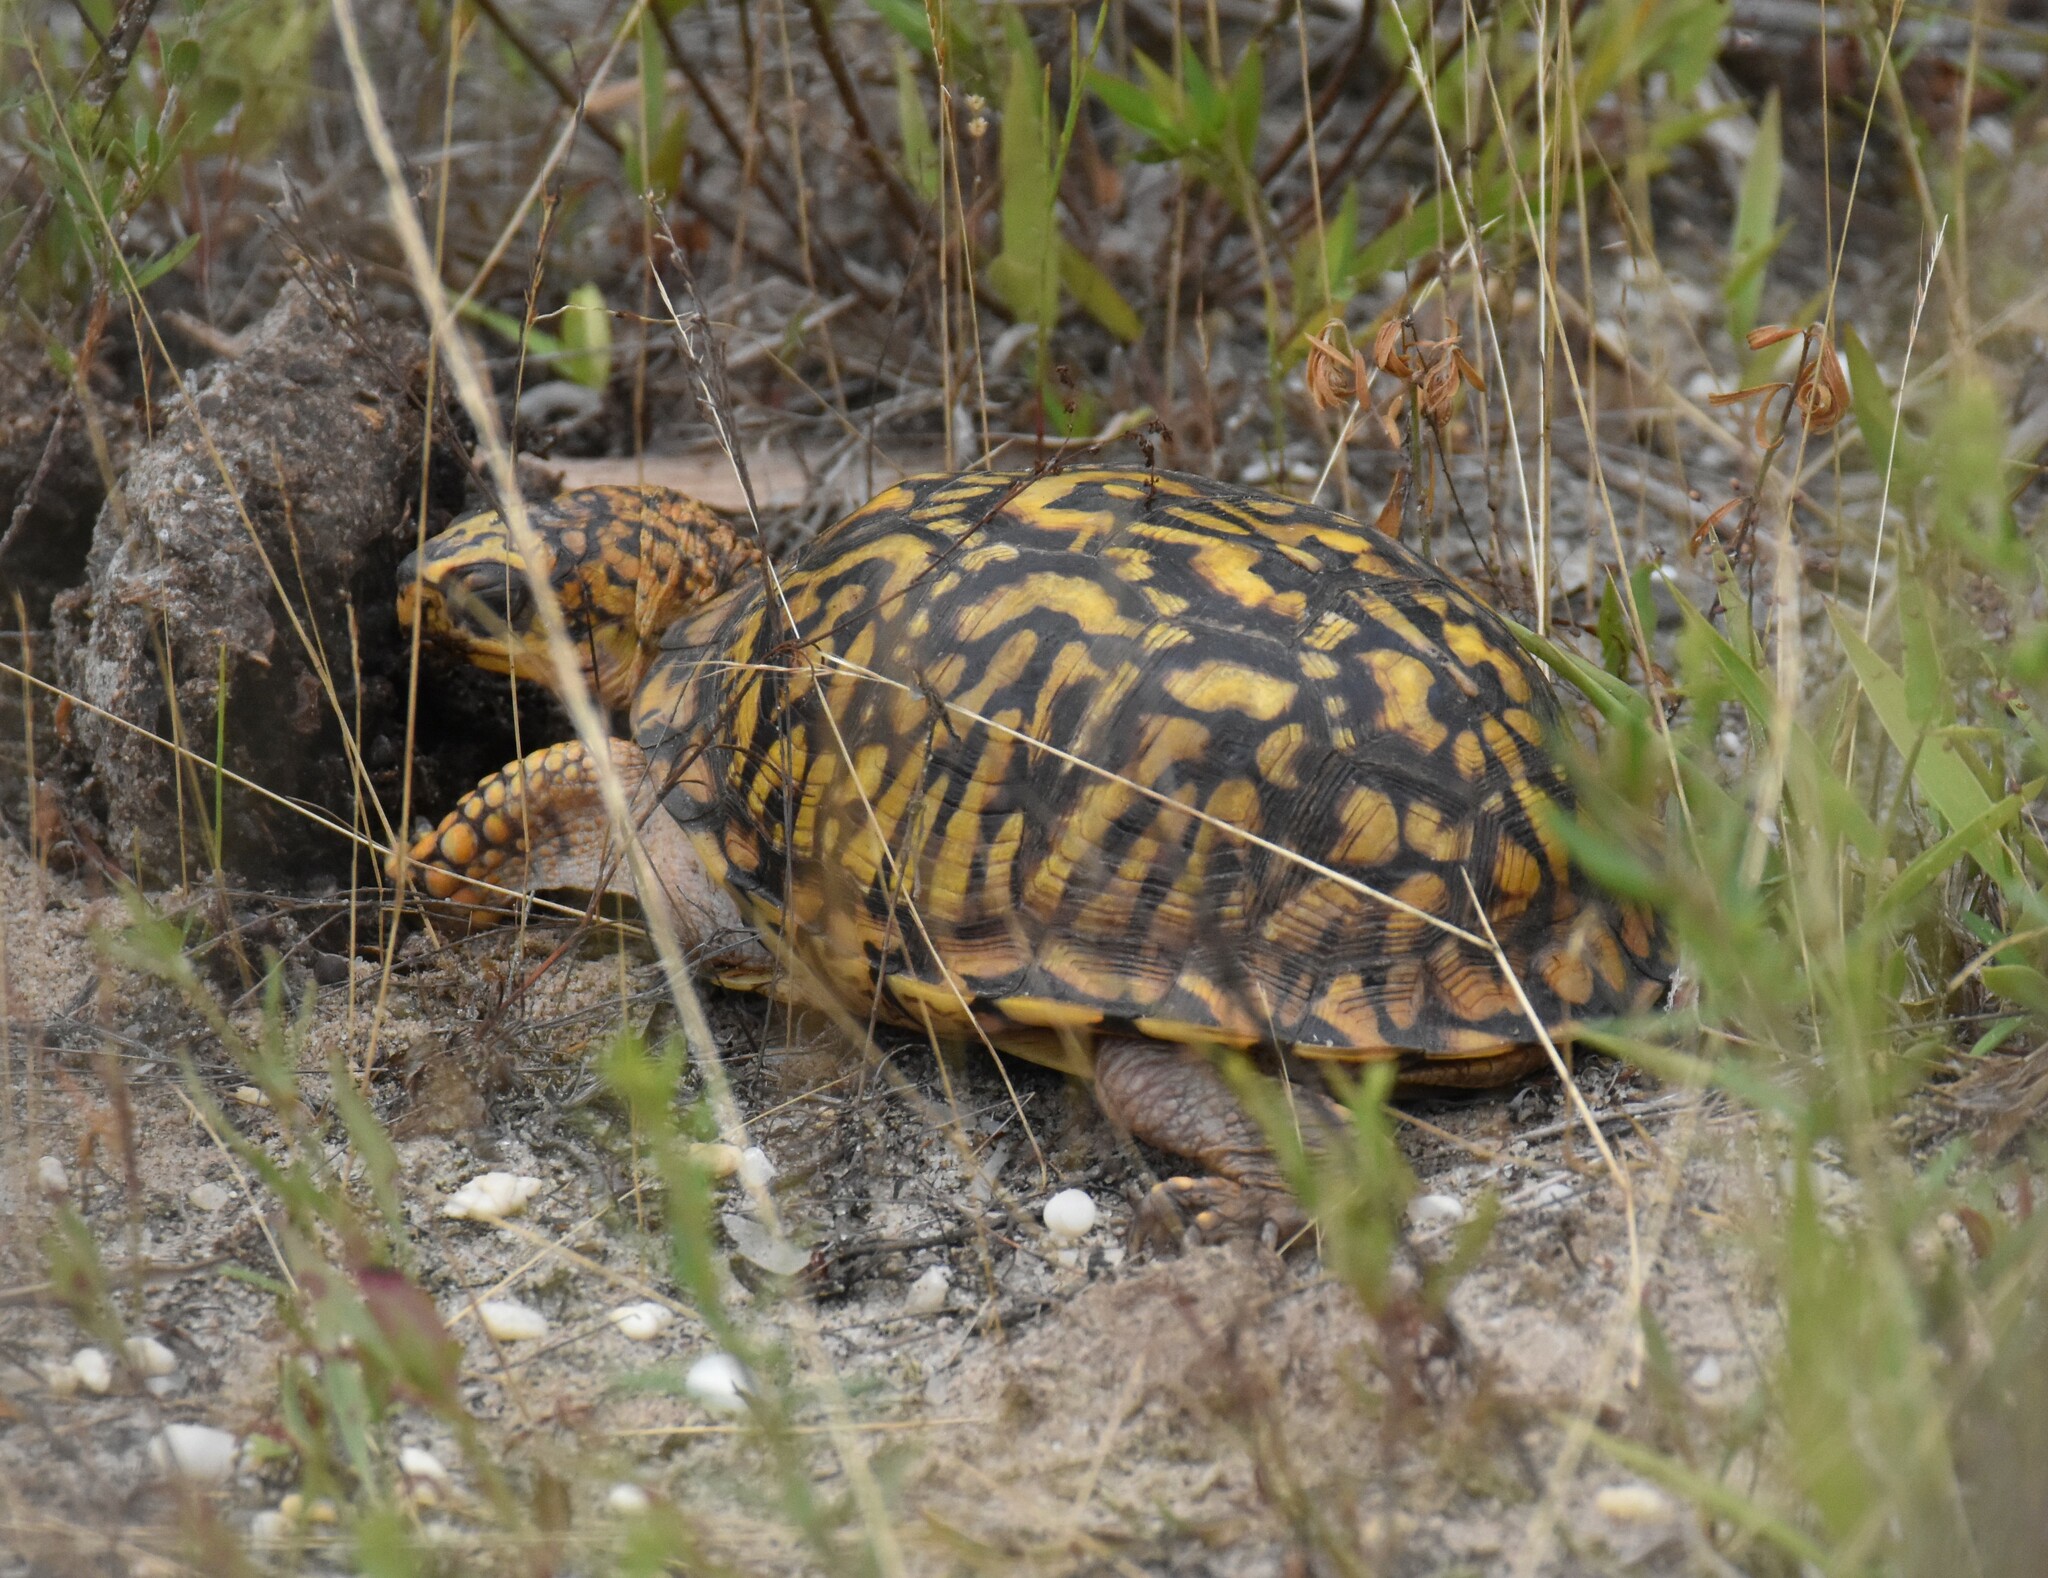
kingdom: Animalia
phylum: Chordata
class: Testudines
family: Emydidae
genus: Terrapene
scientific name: Terrapene carolina
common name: Common box turtle
